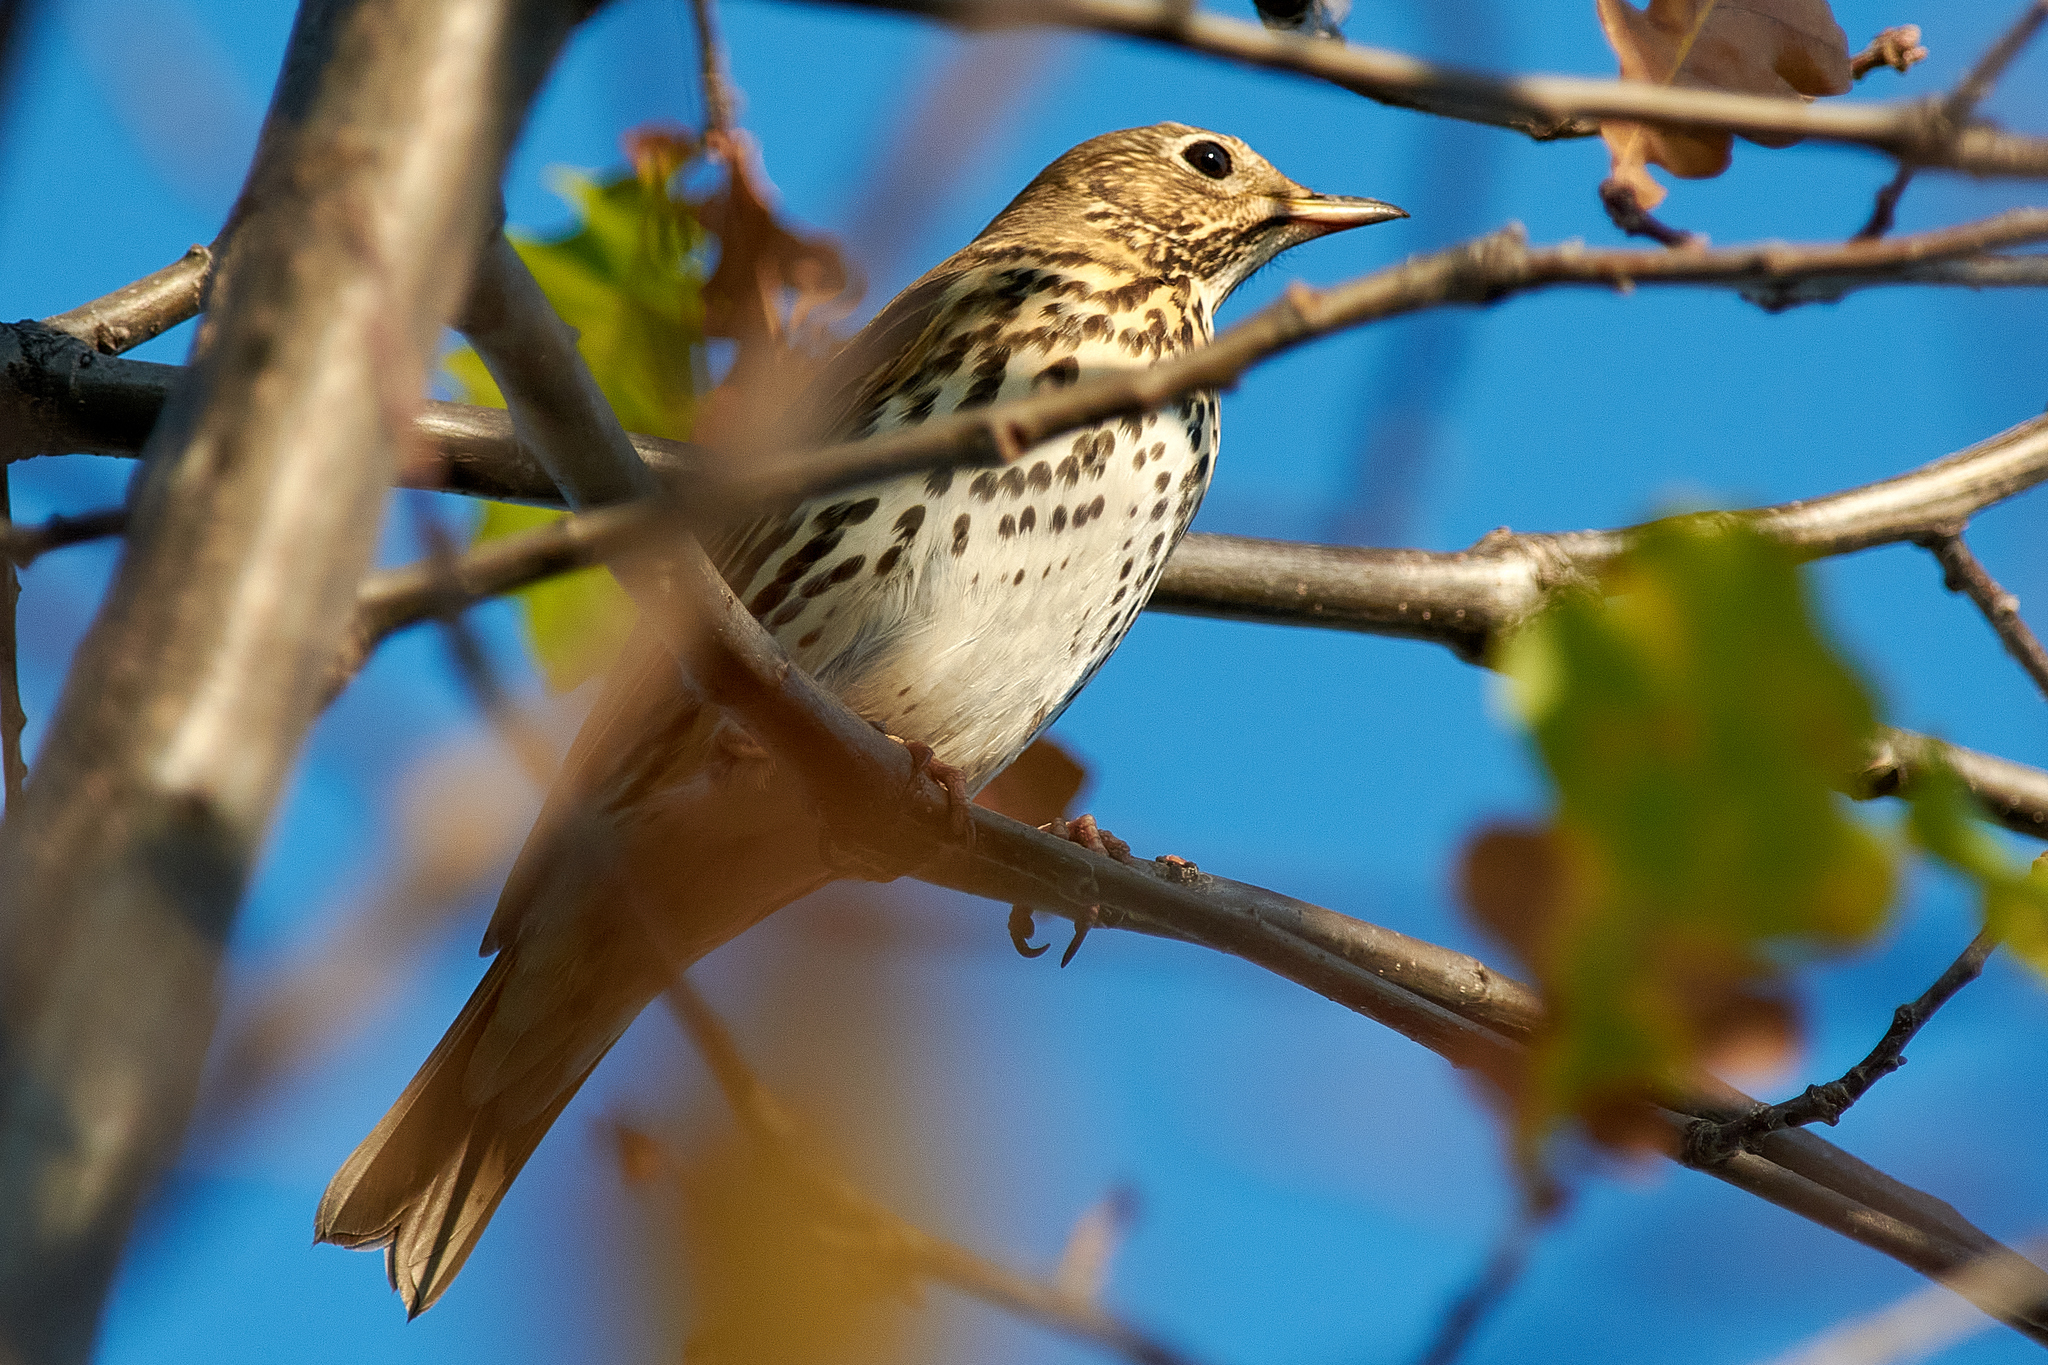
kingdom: Animalia
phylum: Chordata
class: Aves
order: Passeriformes
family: Turdidae
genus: Turdus
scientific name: Turdus philomelos
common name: Song thrush
